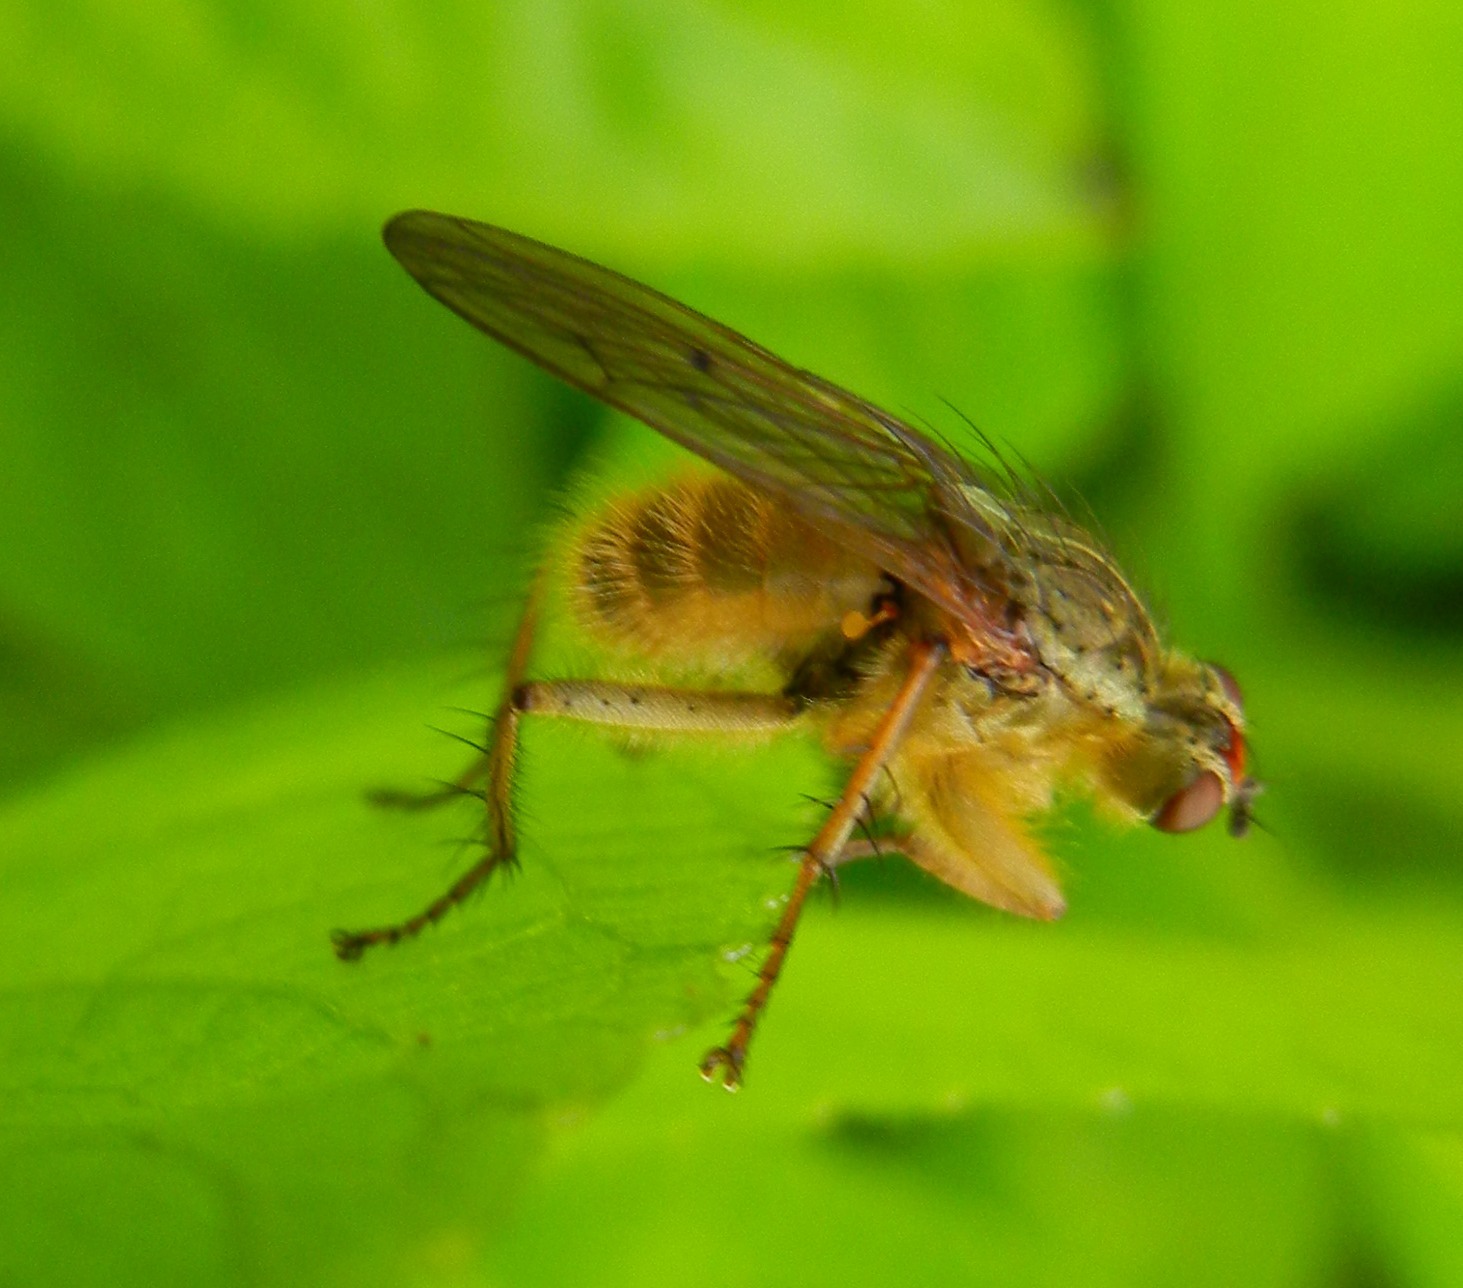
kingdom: Animalia
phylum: Arthropoda
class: Insecta
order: Diptera
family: Scathophagidae
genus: Scathophaga
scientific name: Scathophaga stercoraria
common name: Yellow dung fly
